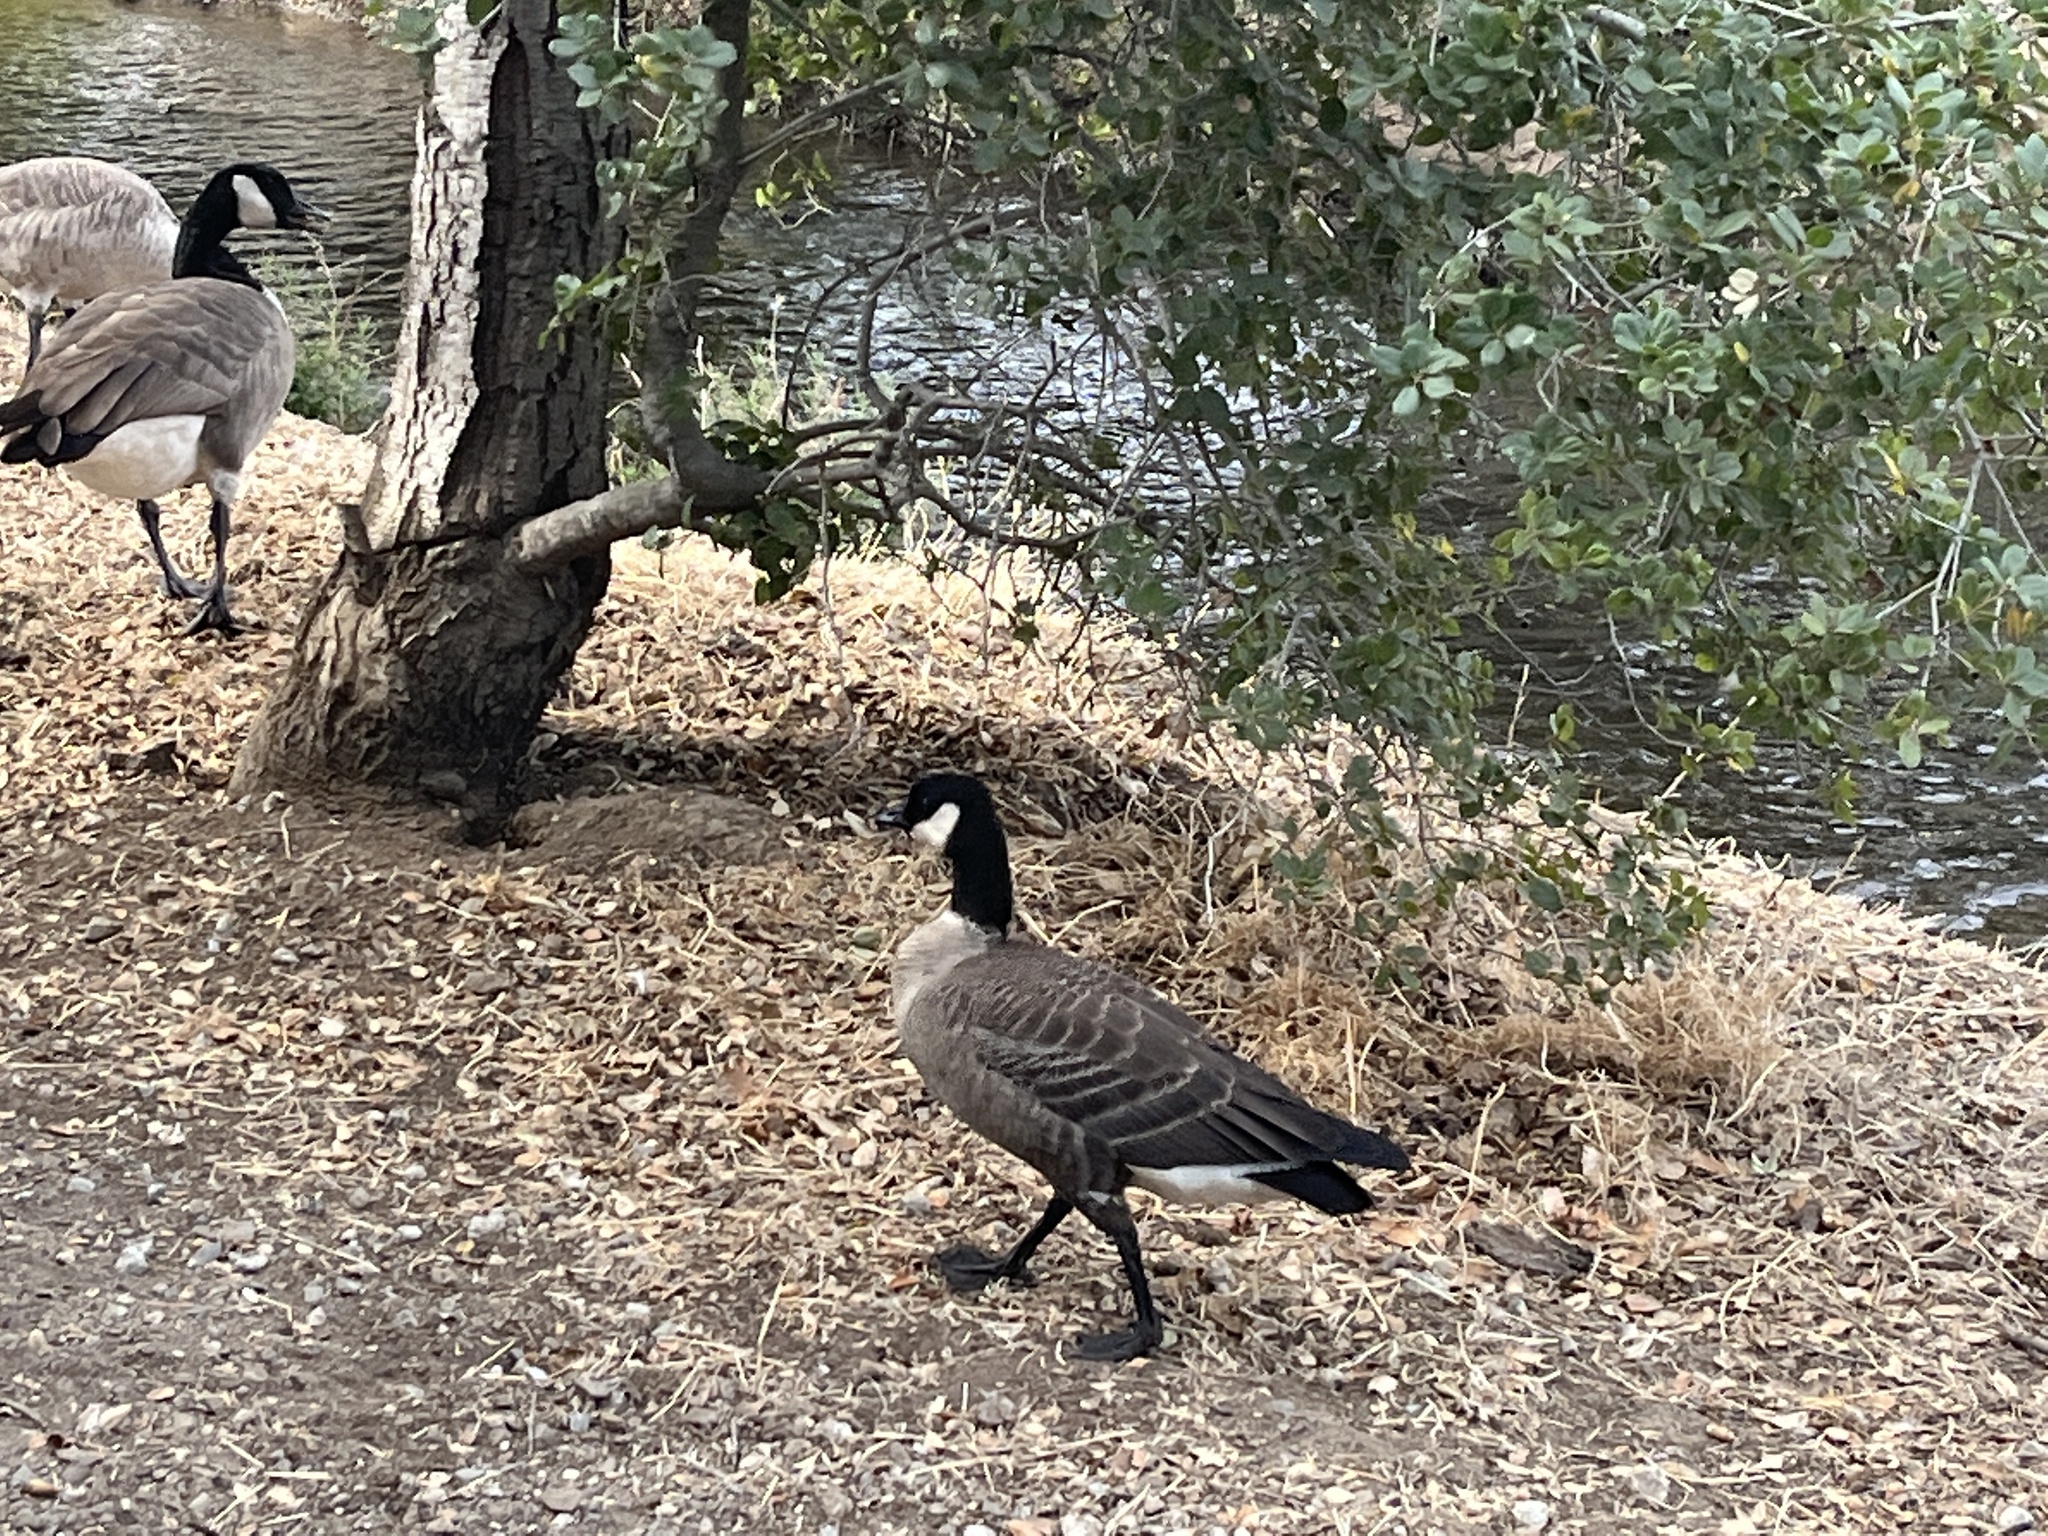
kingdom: Animalia
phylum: Chordata
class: Aves
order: Anseriformes
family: Anatidae
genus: Branta
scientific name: Branta hutchinsii
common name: Cackling goose
